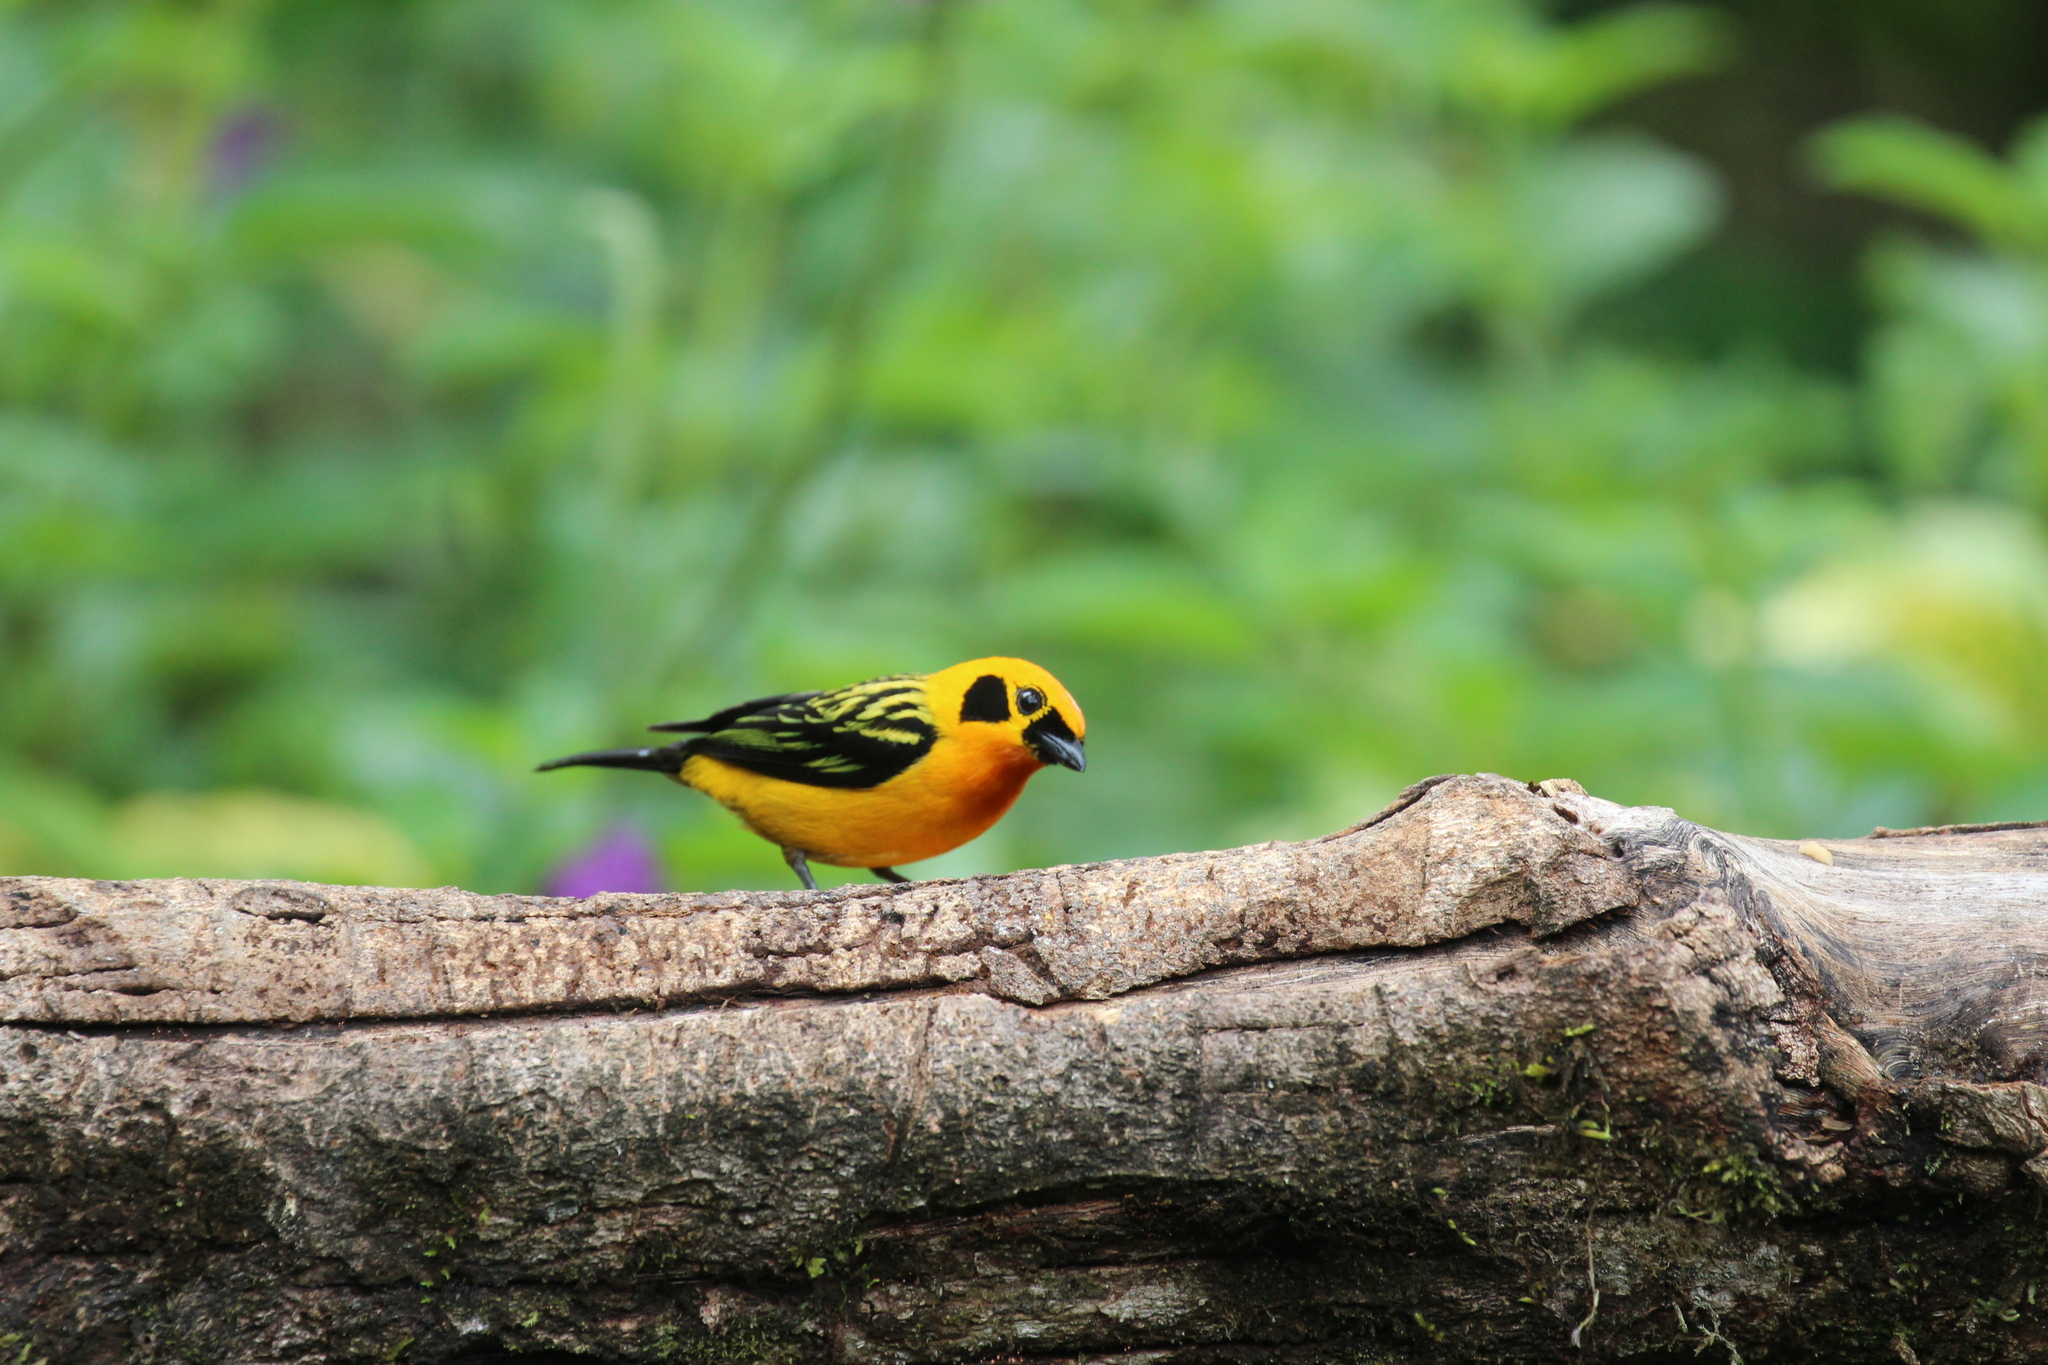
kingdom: Animalia
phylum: Chordata
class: Aves
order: Passeriformes
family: Thraupidae
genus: Tangara
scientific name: Tangara arthus
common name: Golden tanager
